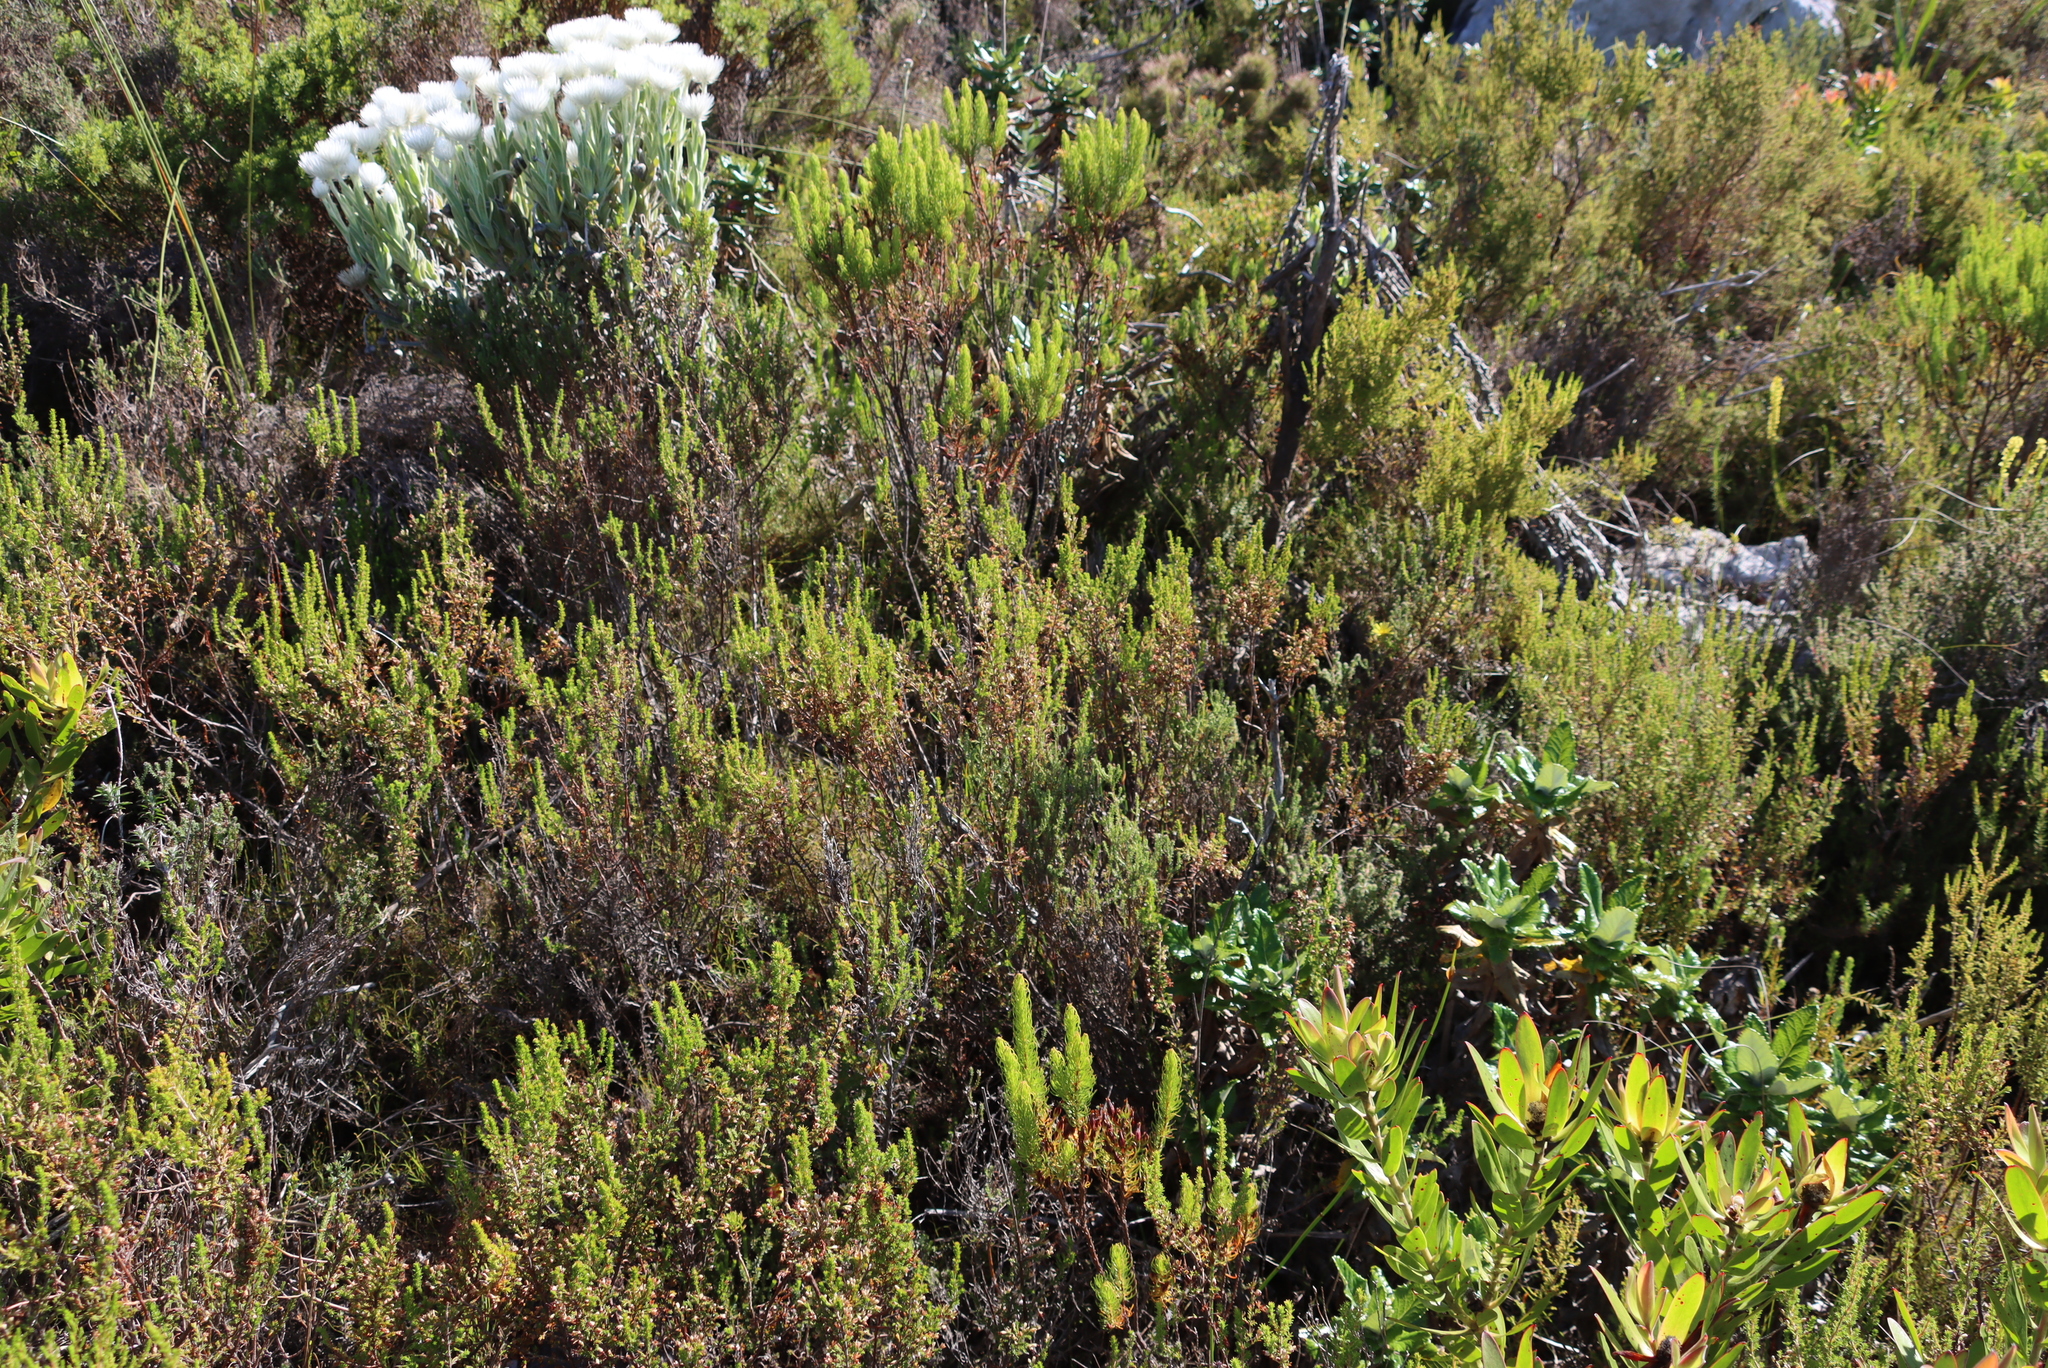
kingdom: Plantae
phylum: Tracheophyta
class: Magnoliopsida
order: Ericales
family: Ericaceae
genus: Erica
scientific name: Erica imbricata
